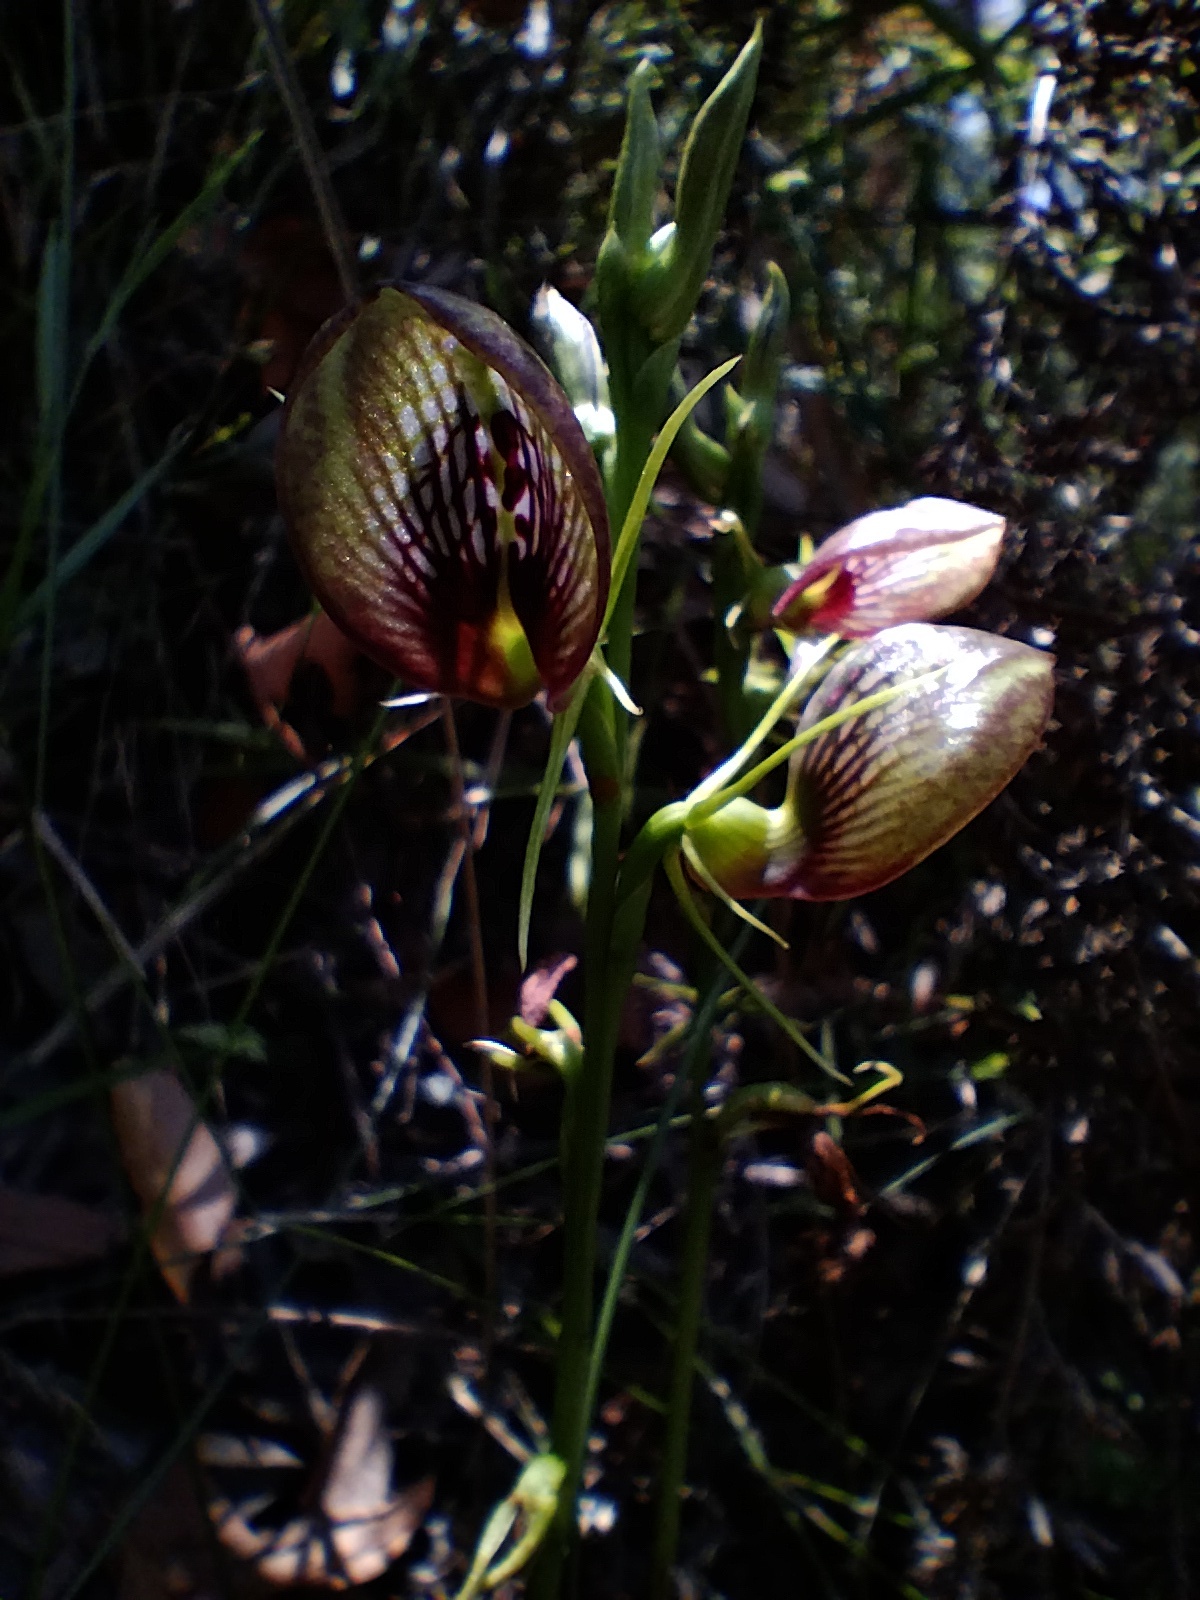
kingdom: Plantae
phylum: Tracheophyta
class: Liliopsida
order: Asparagales
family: Orchidaceae
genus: Cryptostylis
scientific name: Cryptostylis erecta
